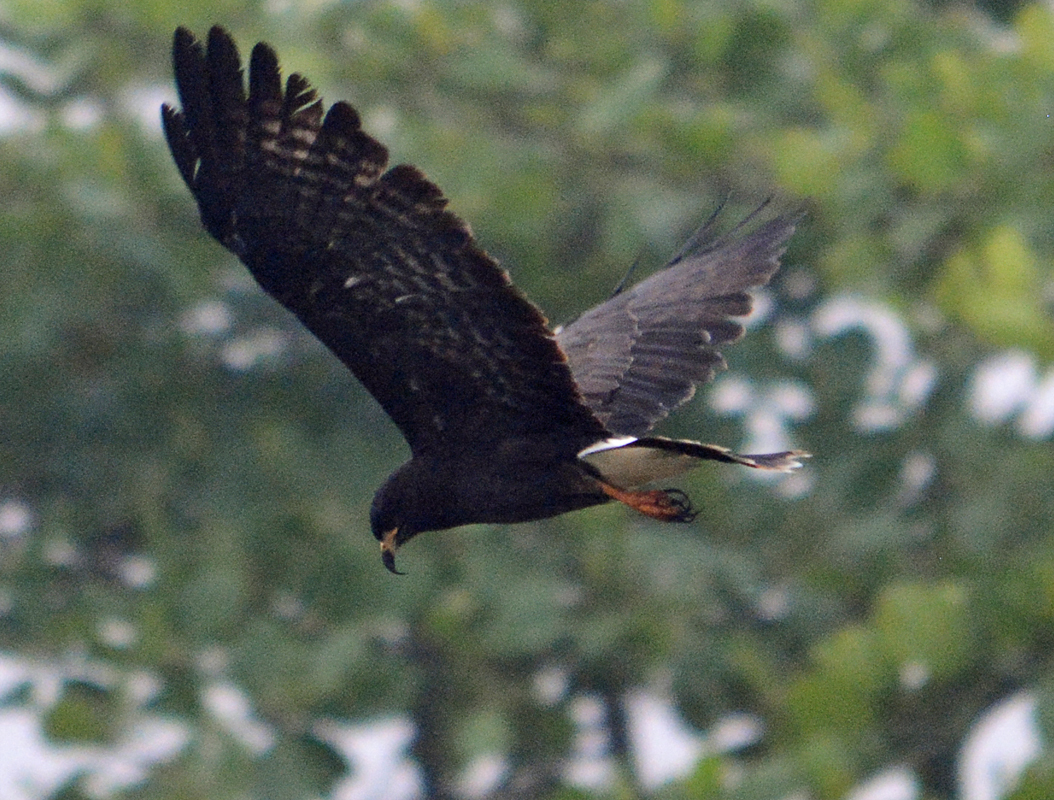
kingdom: Animalia
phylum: Chordata
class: Aves
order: Accipitriformes
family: Accipitridae
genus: Rostrhamus
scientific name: Rostrhamus sociabilis
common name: Snail kite
